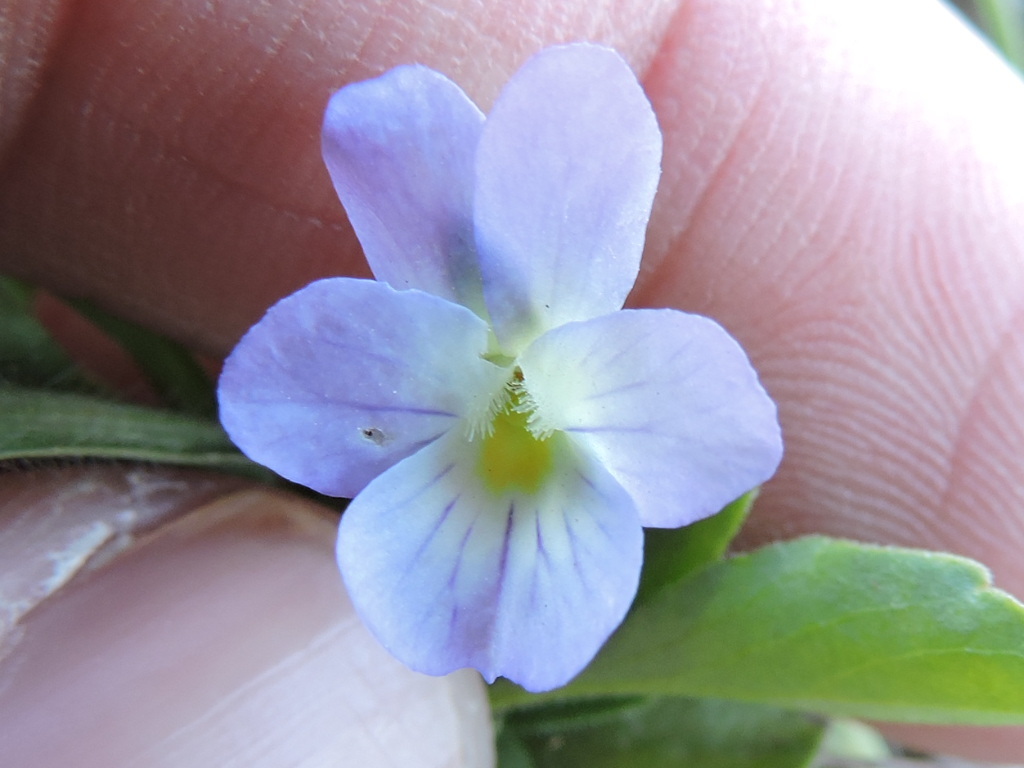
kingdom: Plantae
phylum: Tracheophyta
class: Magnoliopsida
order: Malpighiales
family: Violaceae
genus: Viola
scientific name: Viola rafinesquei
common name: American field pansy
